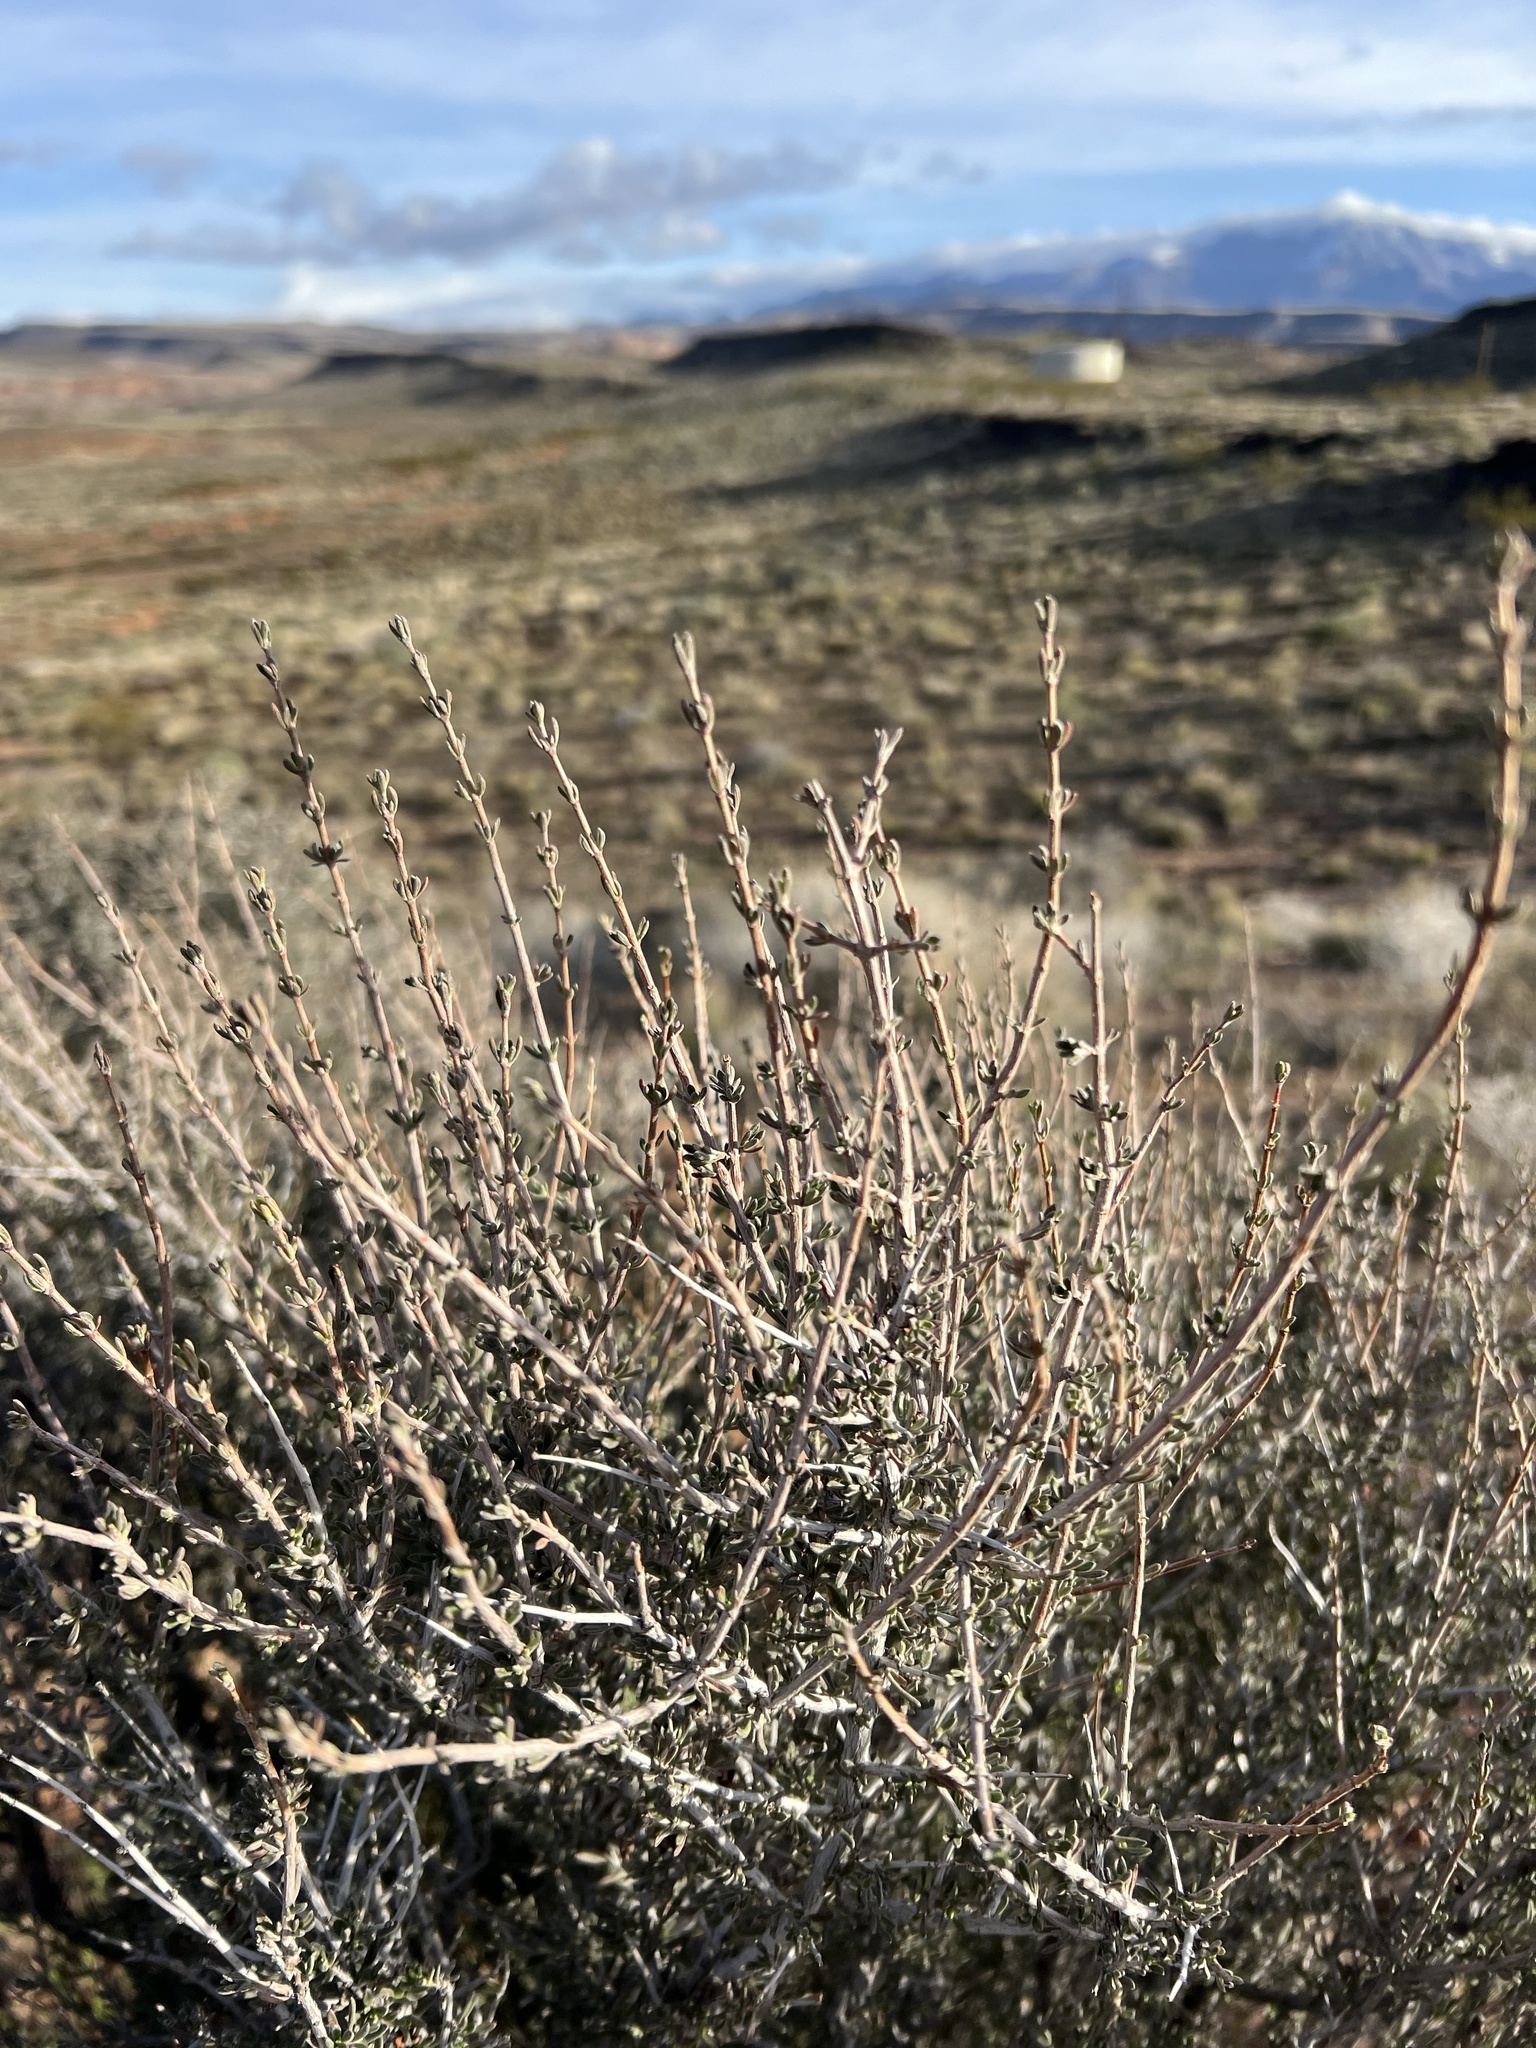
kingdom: Plantae
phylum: Tracheophyta
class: Magnoliopsida
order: Rosales
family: Rosaceae
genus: Coleogyne
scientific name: Coleogyne ramosissima
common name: Blackbrush
